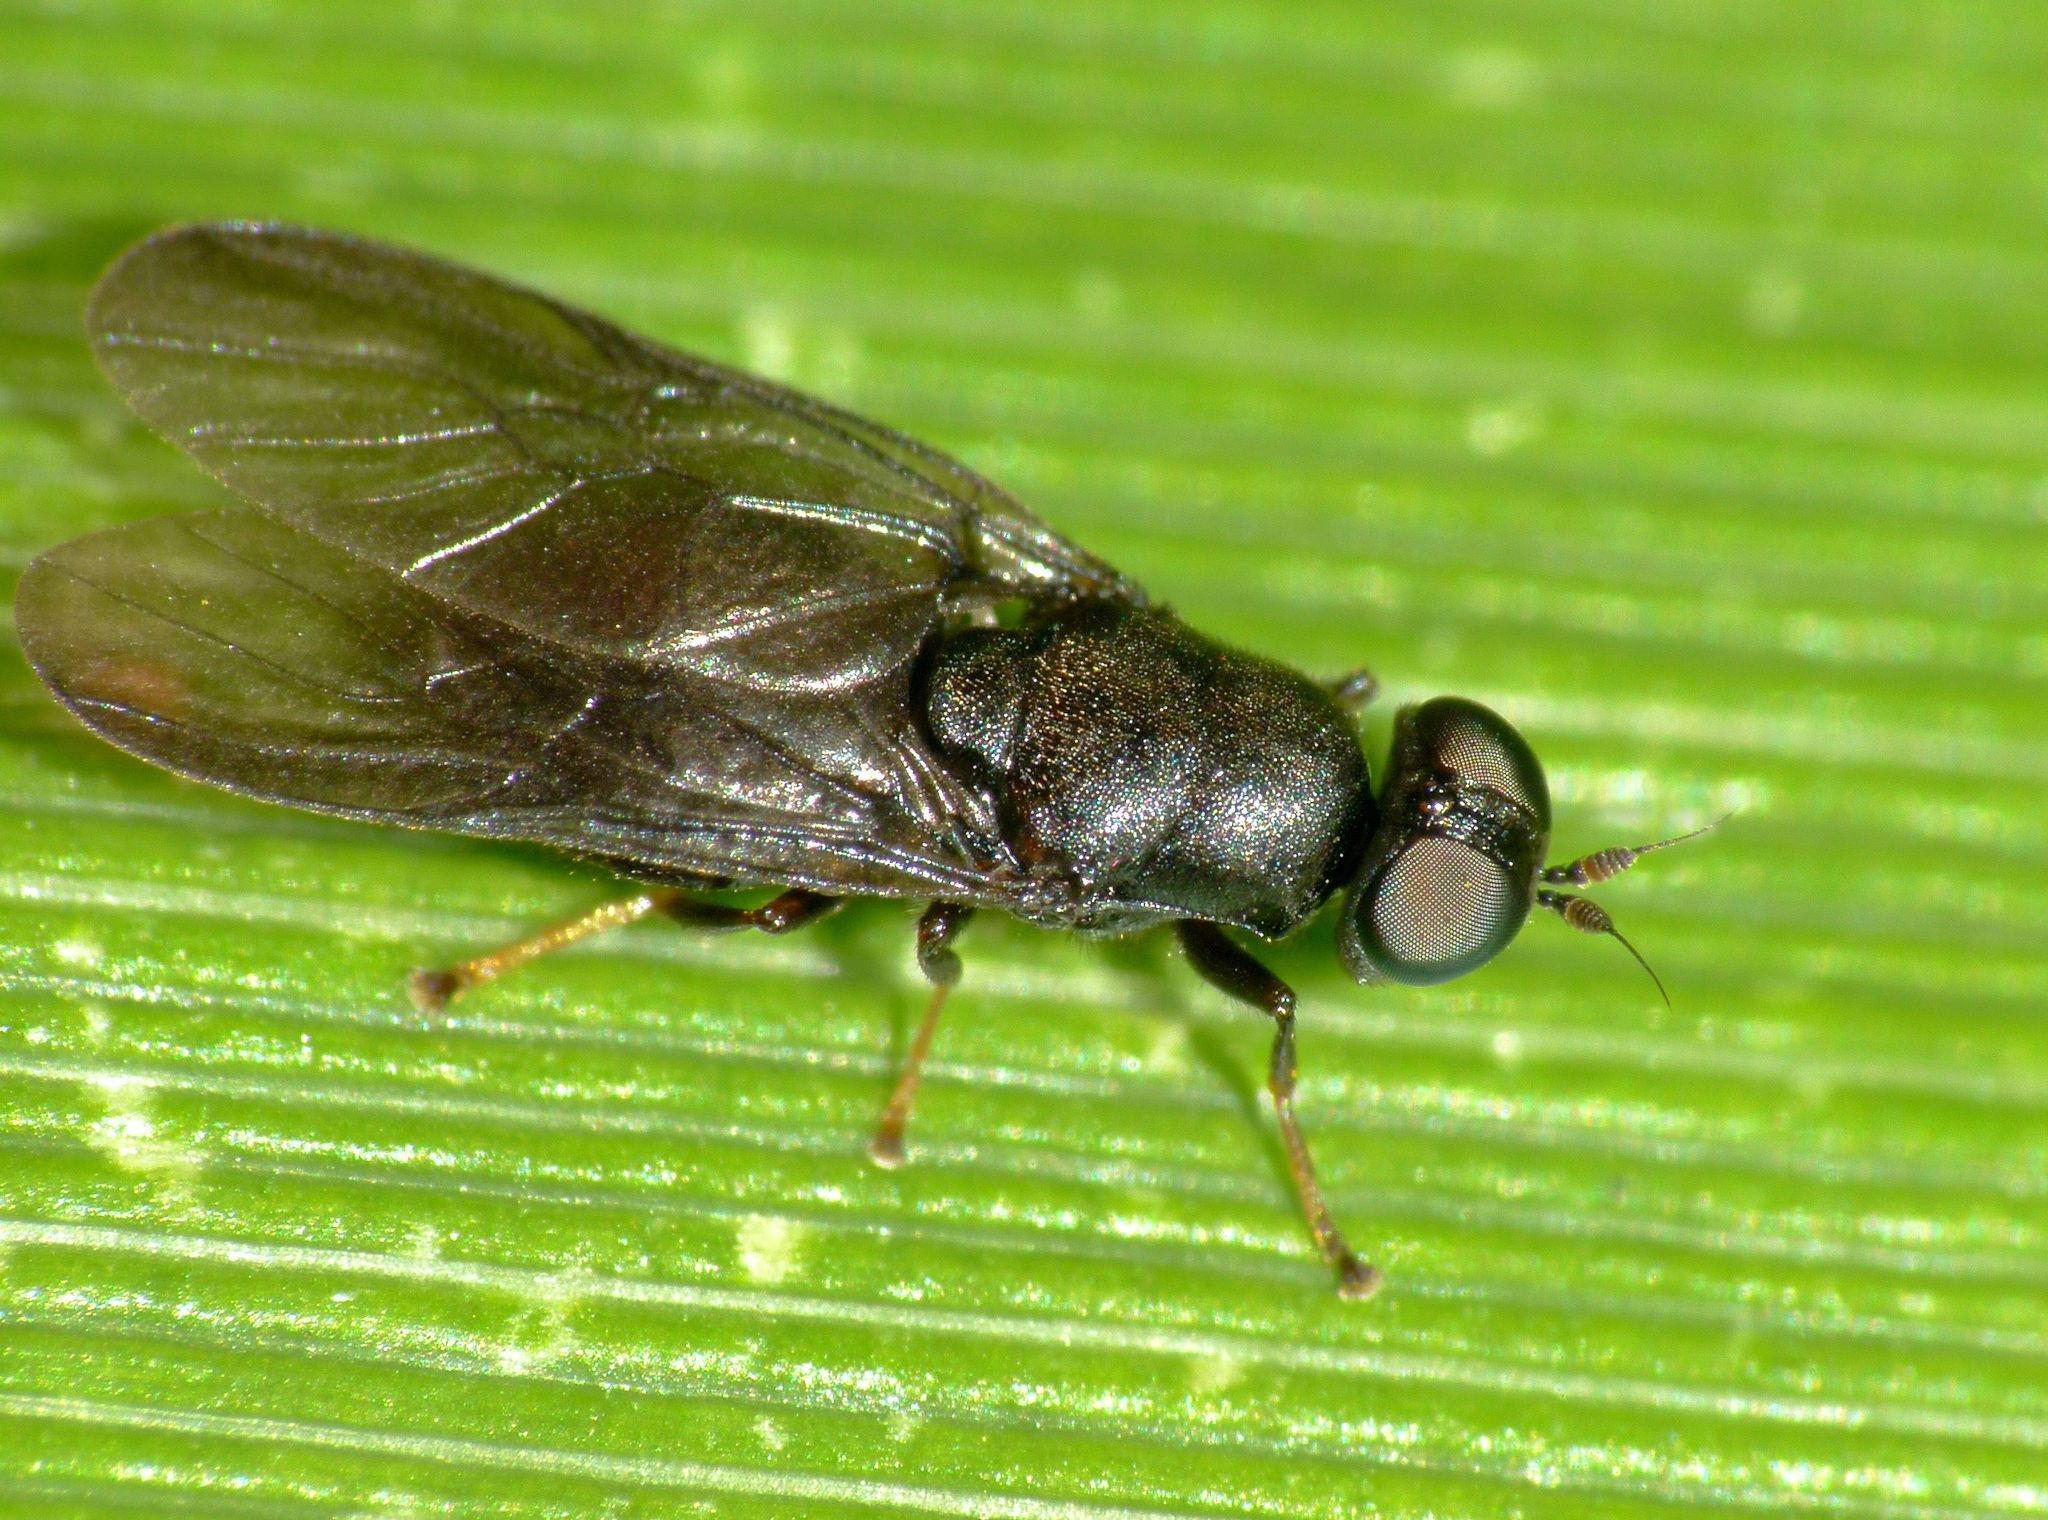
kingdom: Animalia
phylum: Arthropoda
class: Insecta
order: Diptera
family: Stratiomyidae
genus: Dysbiota
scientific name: Dysbiota parvula
